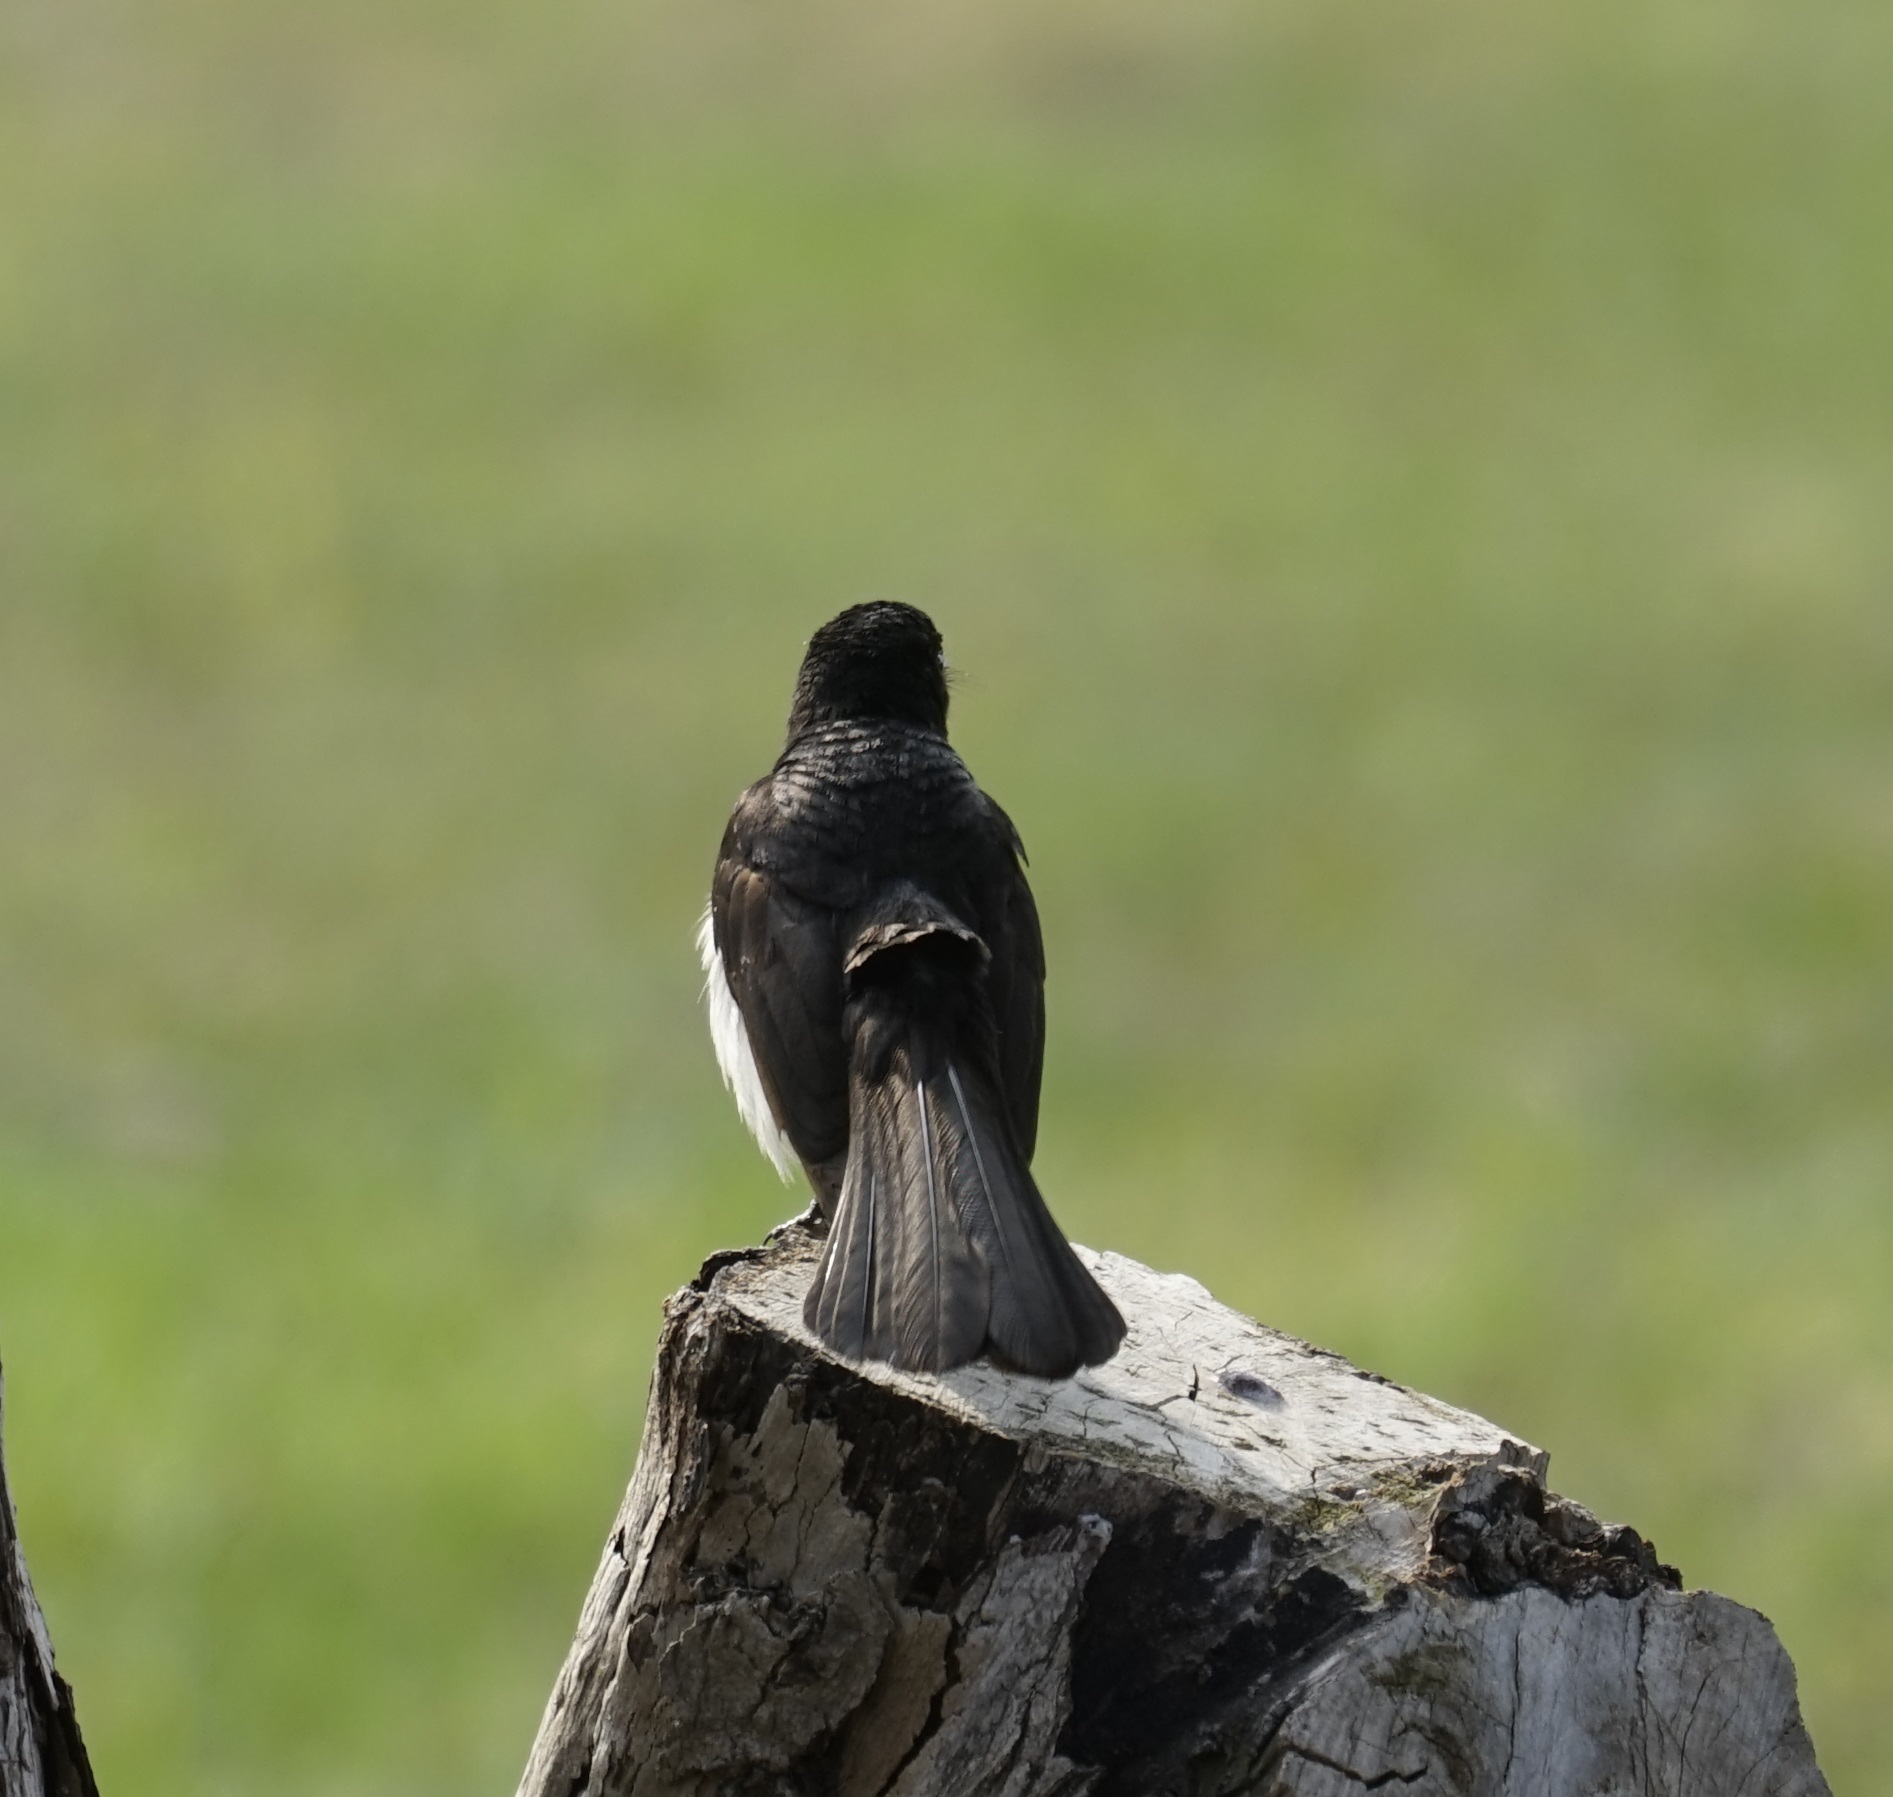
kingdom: Animalia
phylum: Chordata
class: Aves
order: Passeriformes
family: Rhipiduridae
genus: Rhipidura
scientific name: Rhipidura leucophrys
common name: Willie wagtail
